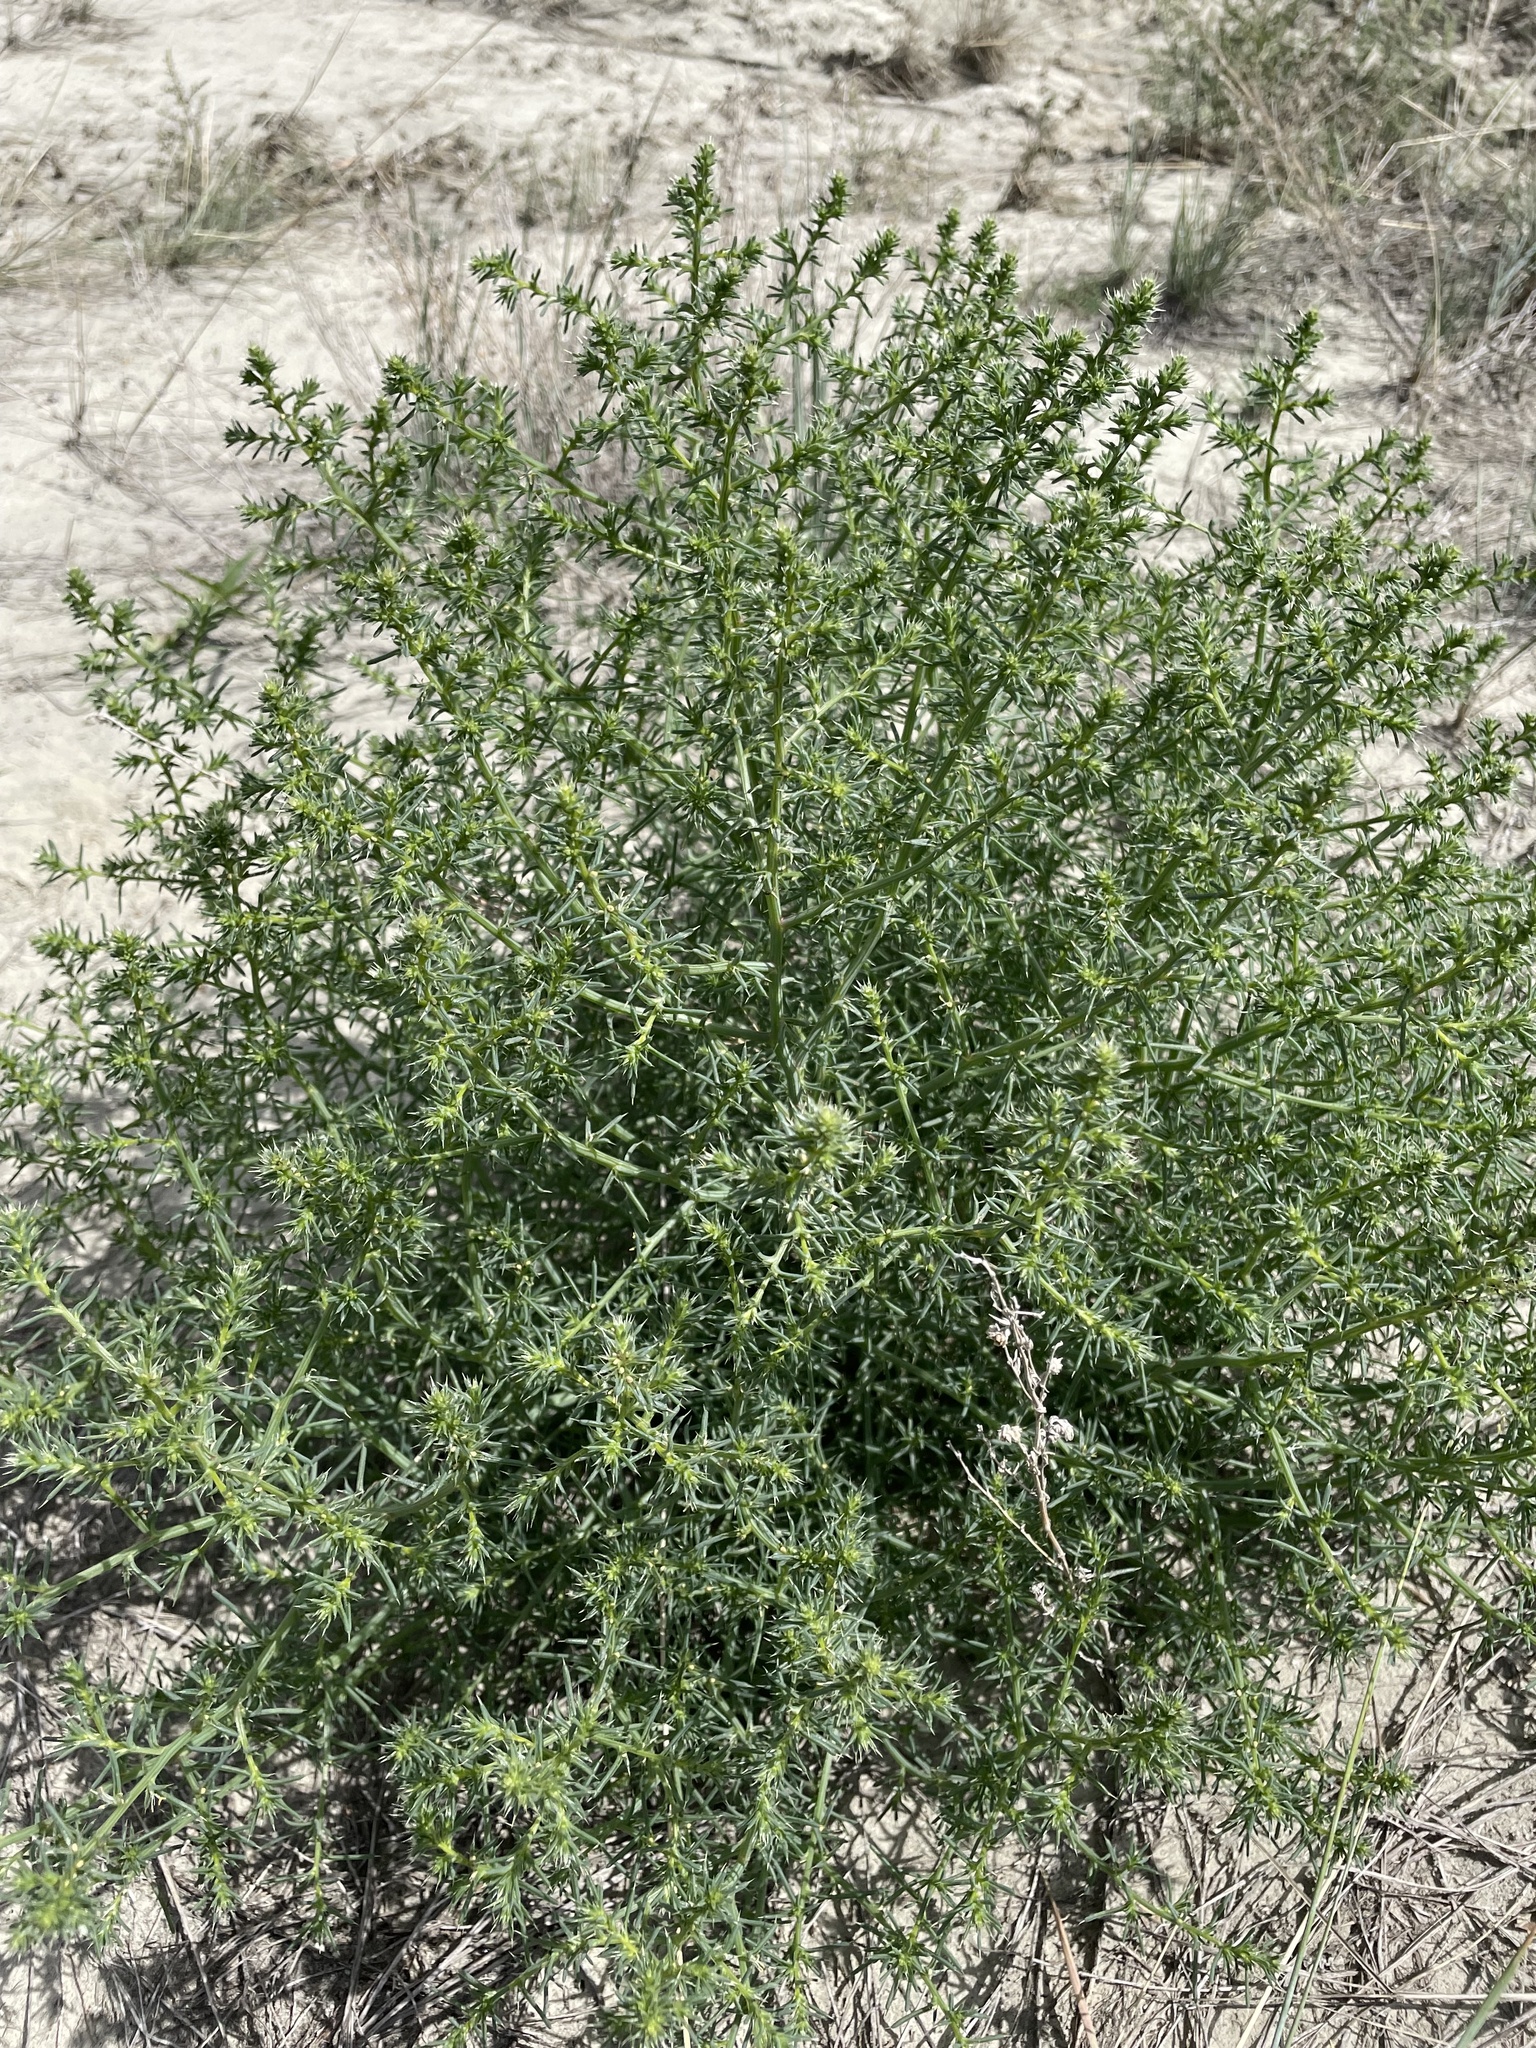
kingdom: Plantae
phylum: Tracheophyta
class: Magnoliopsida
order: Caryophyllales
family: Amaranthaceae
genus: Salsola
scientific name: Salsola tragus
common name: Prickly russian thistle
